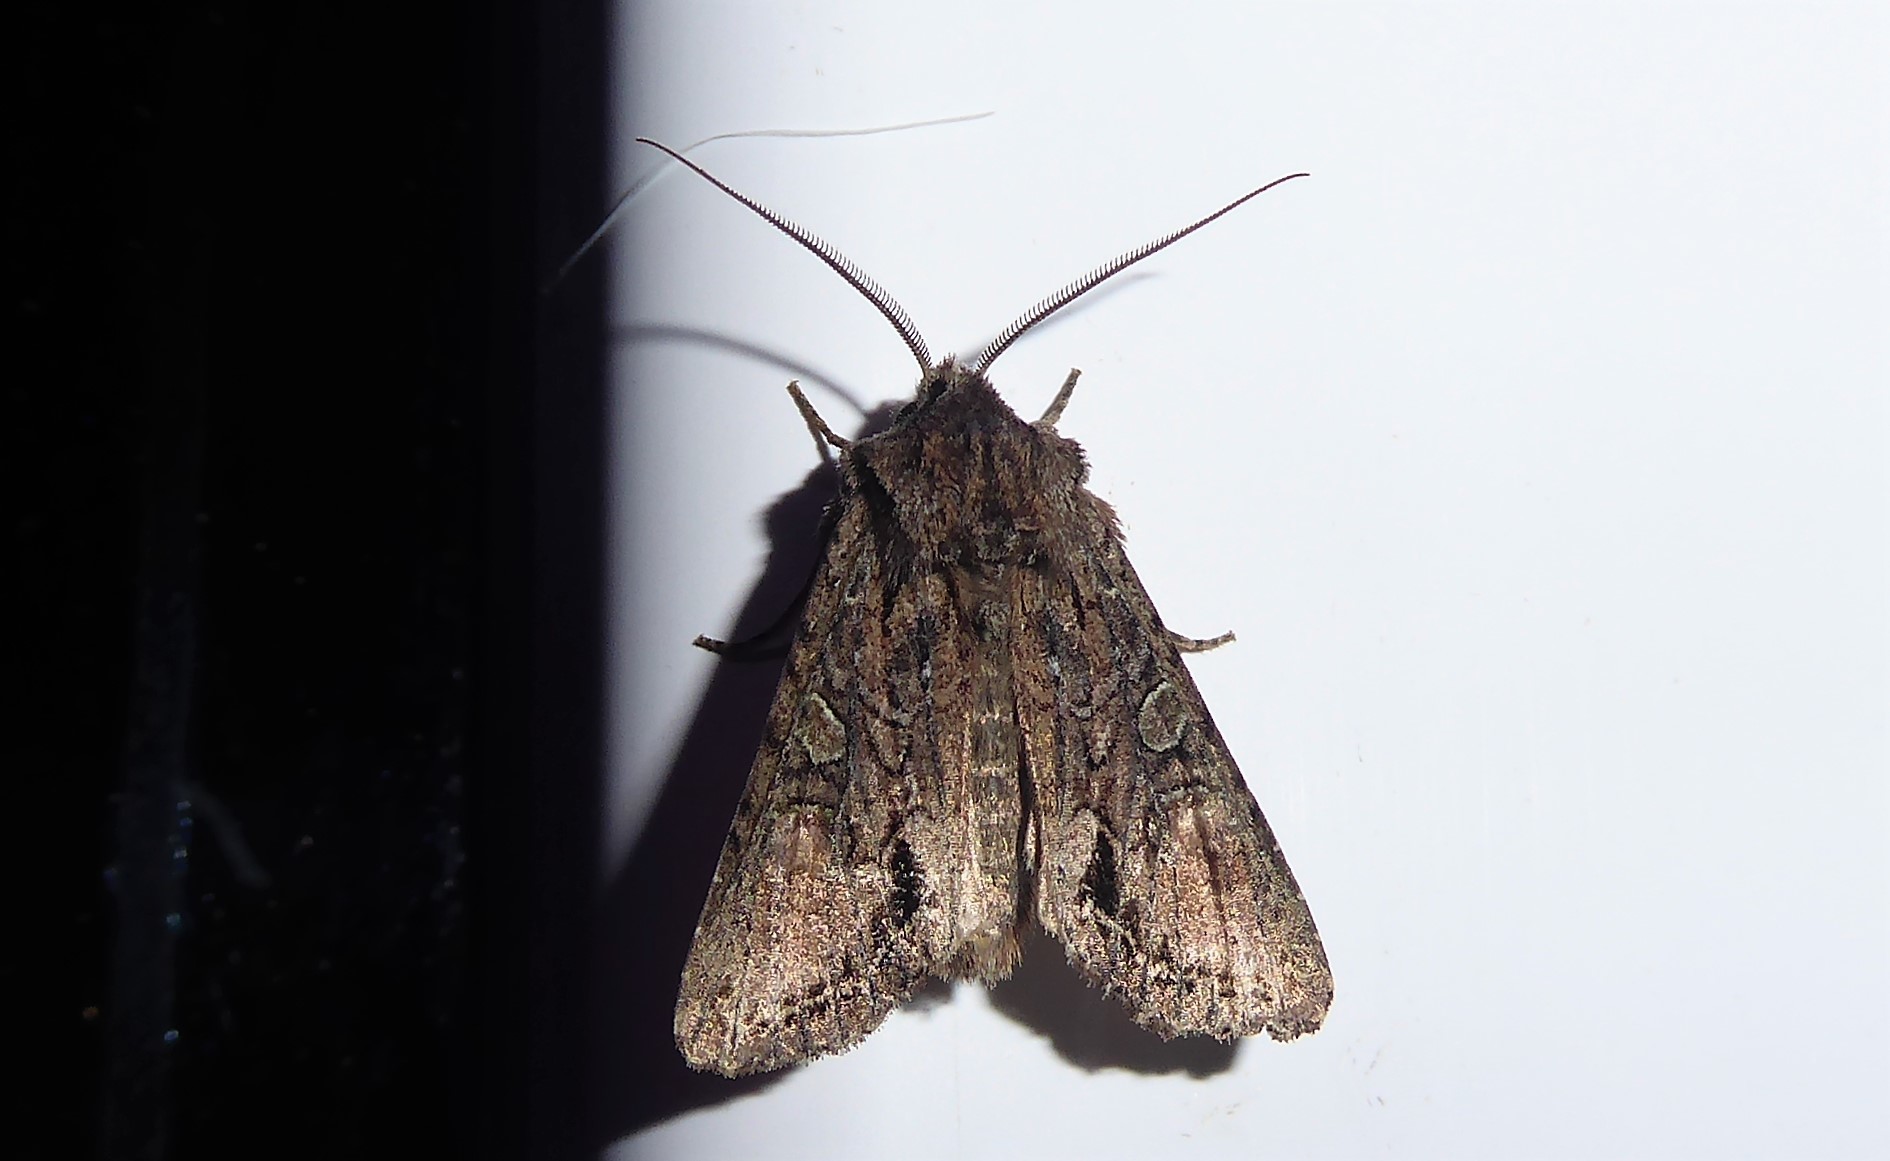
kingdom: Animalia
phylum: Arthropoda
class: Insecta
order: Lepidoptera
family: Noctuidae
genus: Ichneutica
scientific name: Ichneutica mutans
